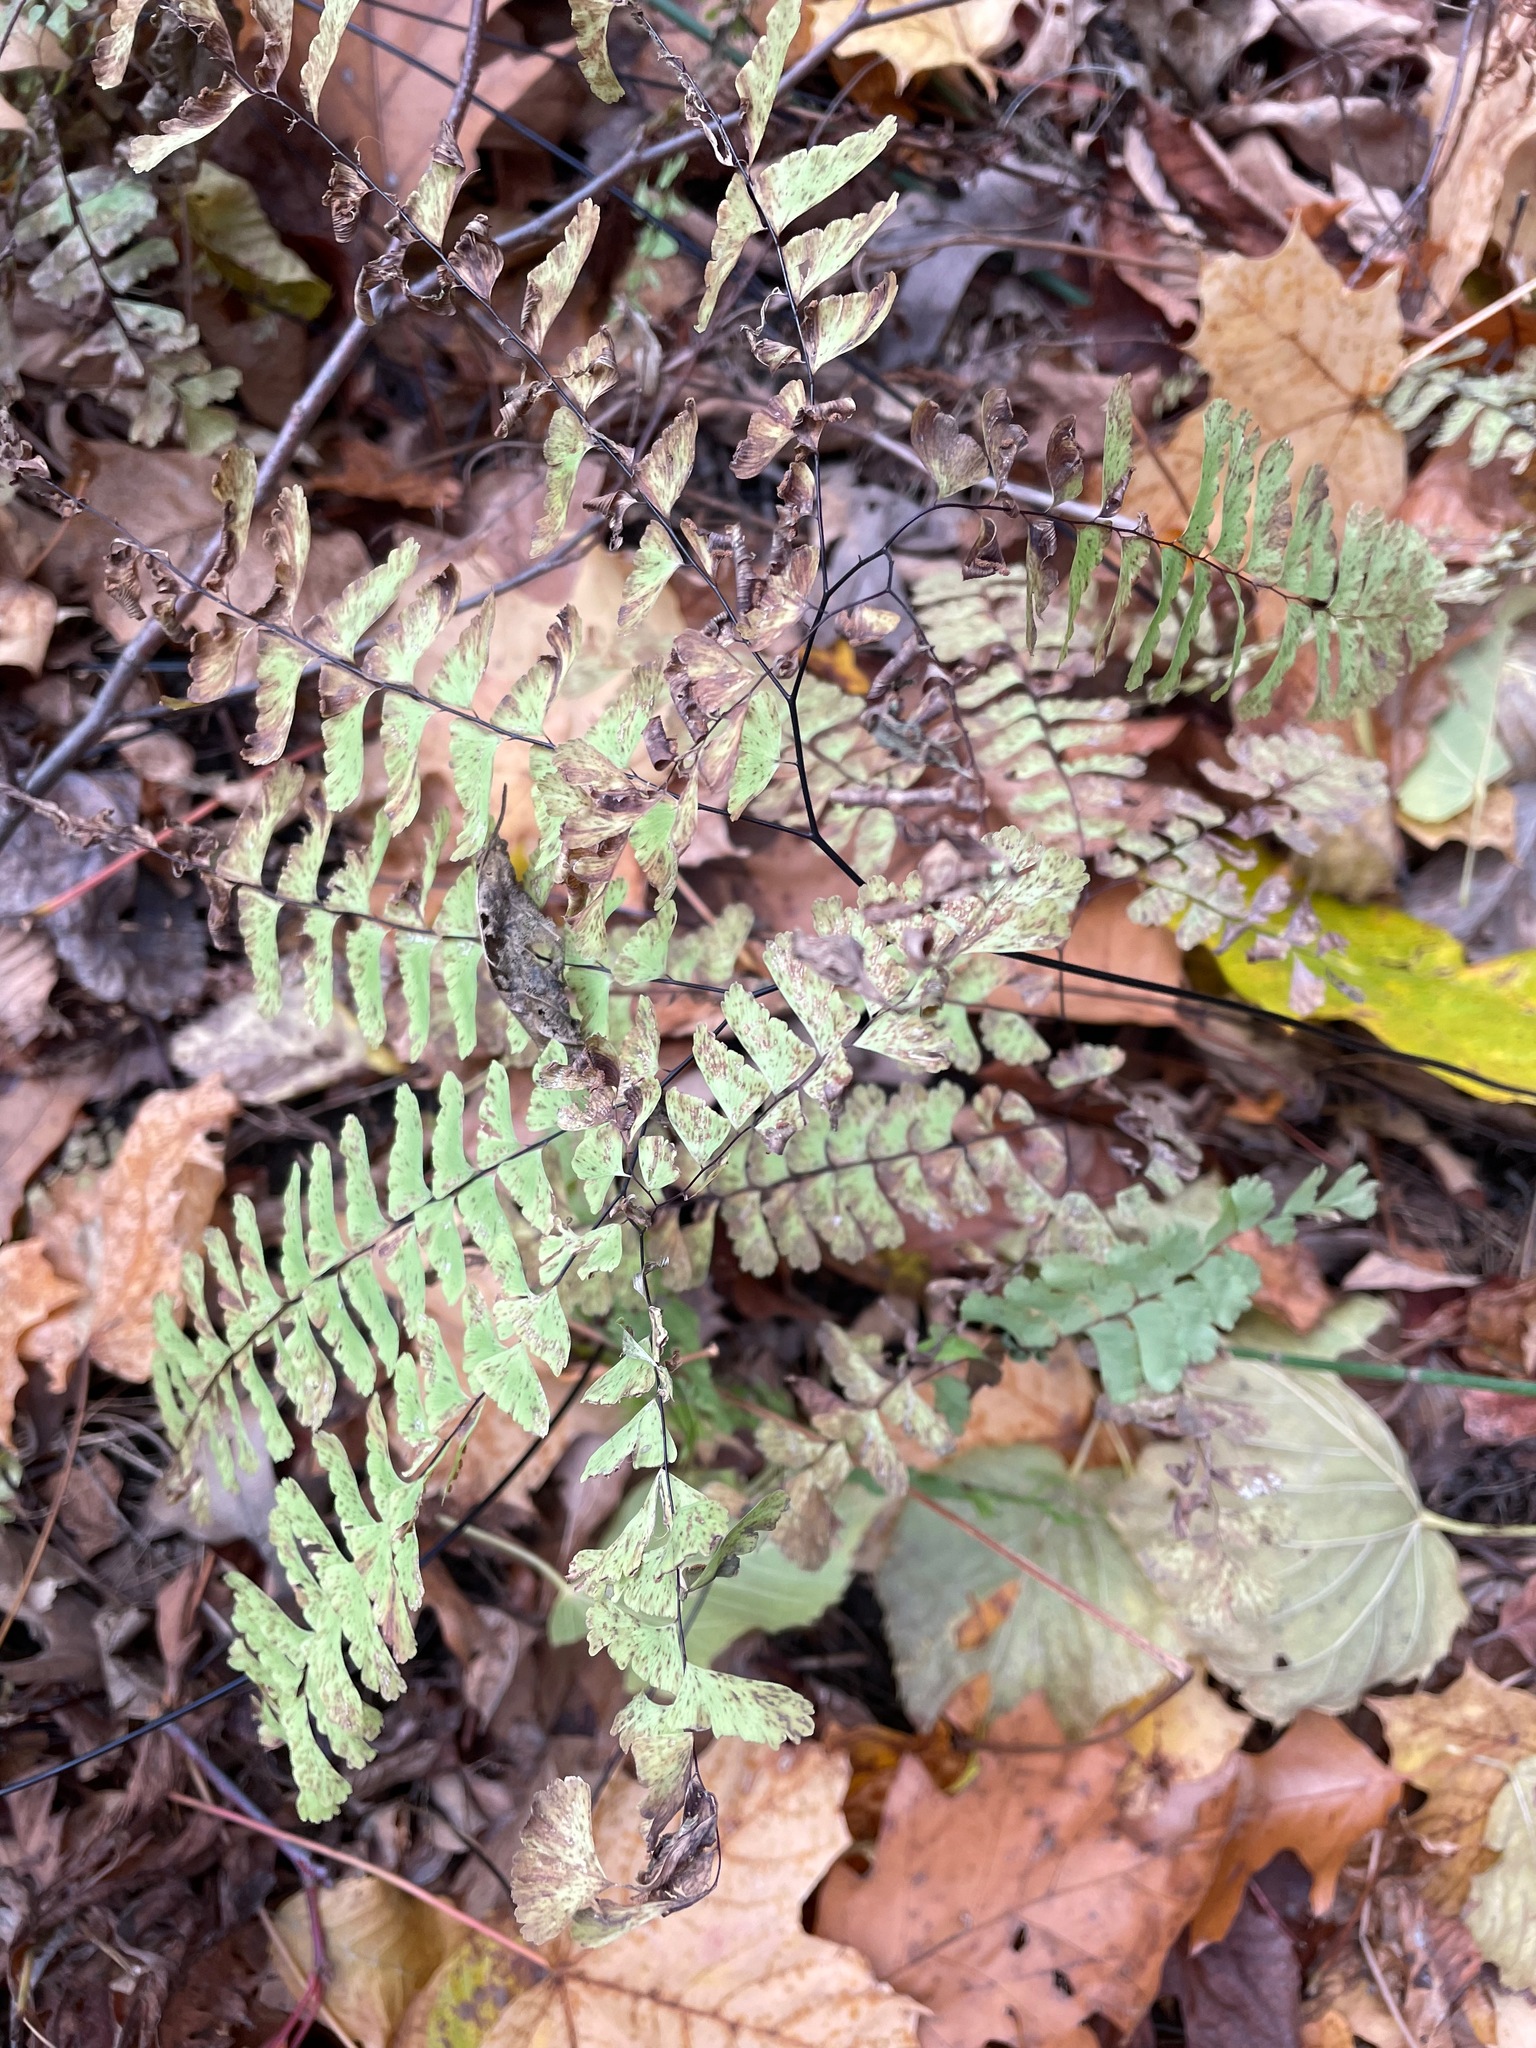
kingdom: Plantae
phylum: Tracheophyta
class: Polypodiopsida
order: Polypodiales
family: Pteridaceae
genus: Adiantum
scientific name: Adiantum pedatum
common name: Five-finger fern
